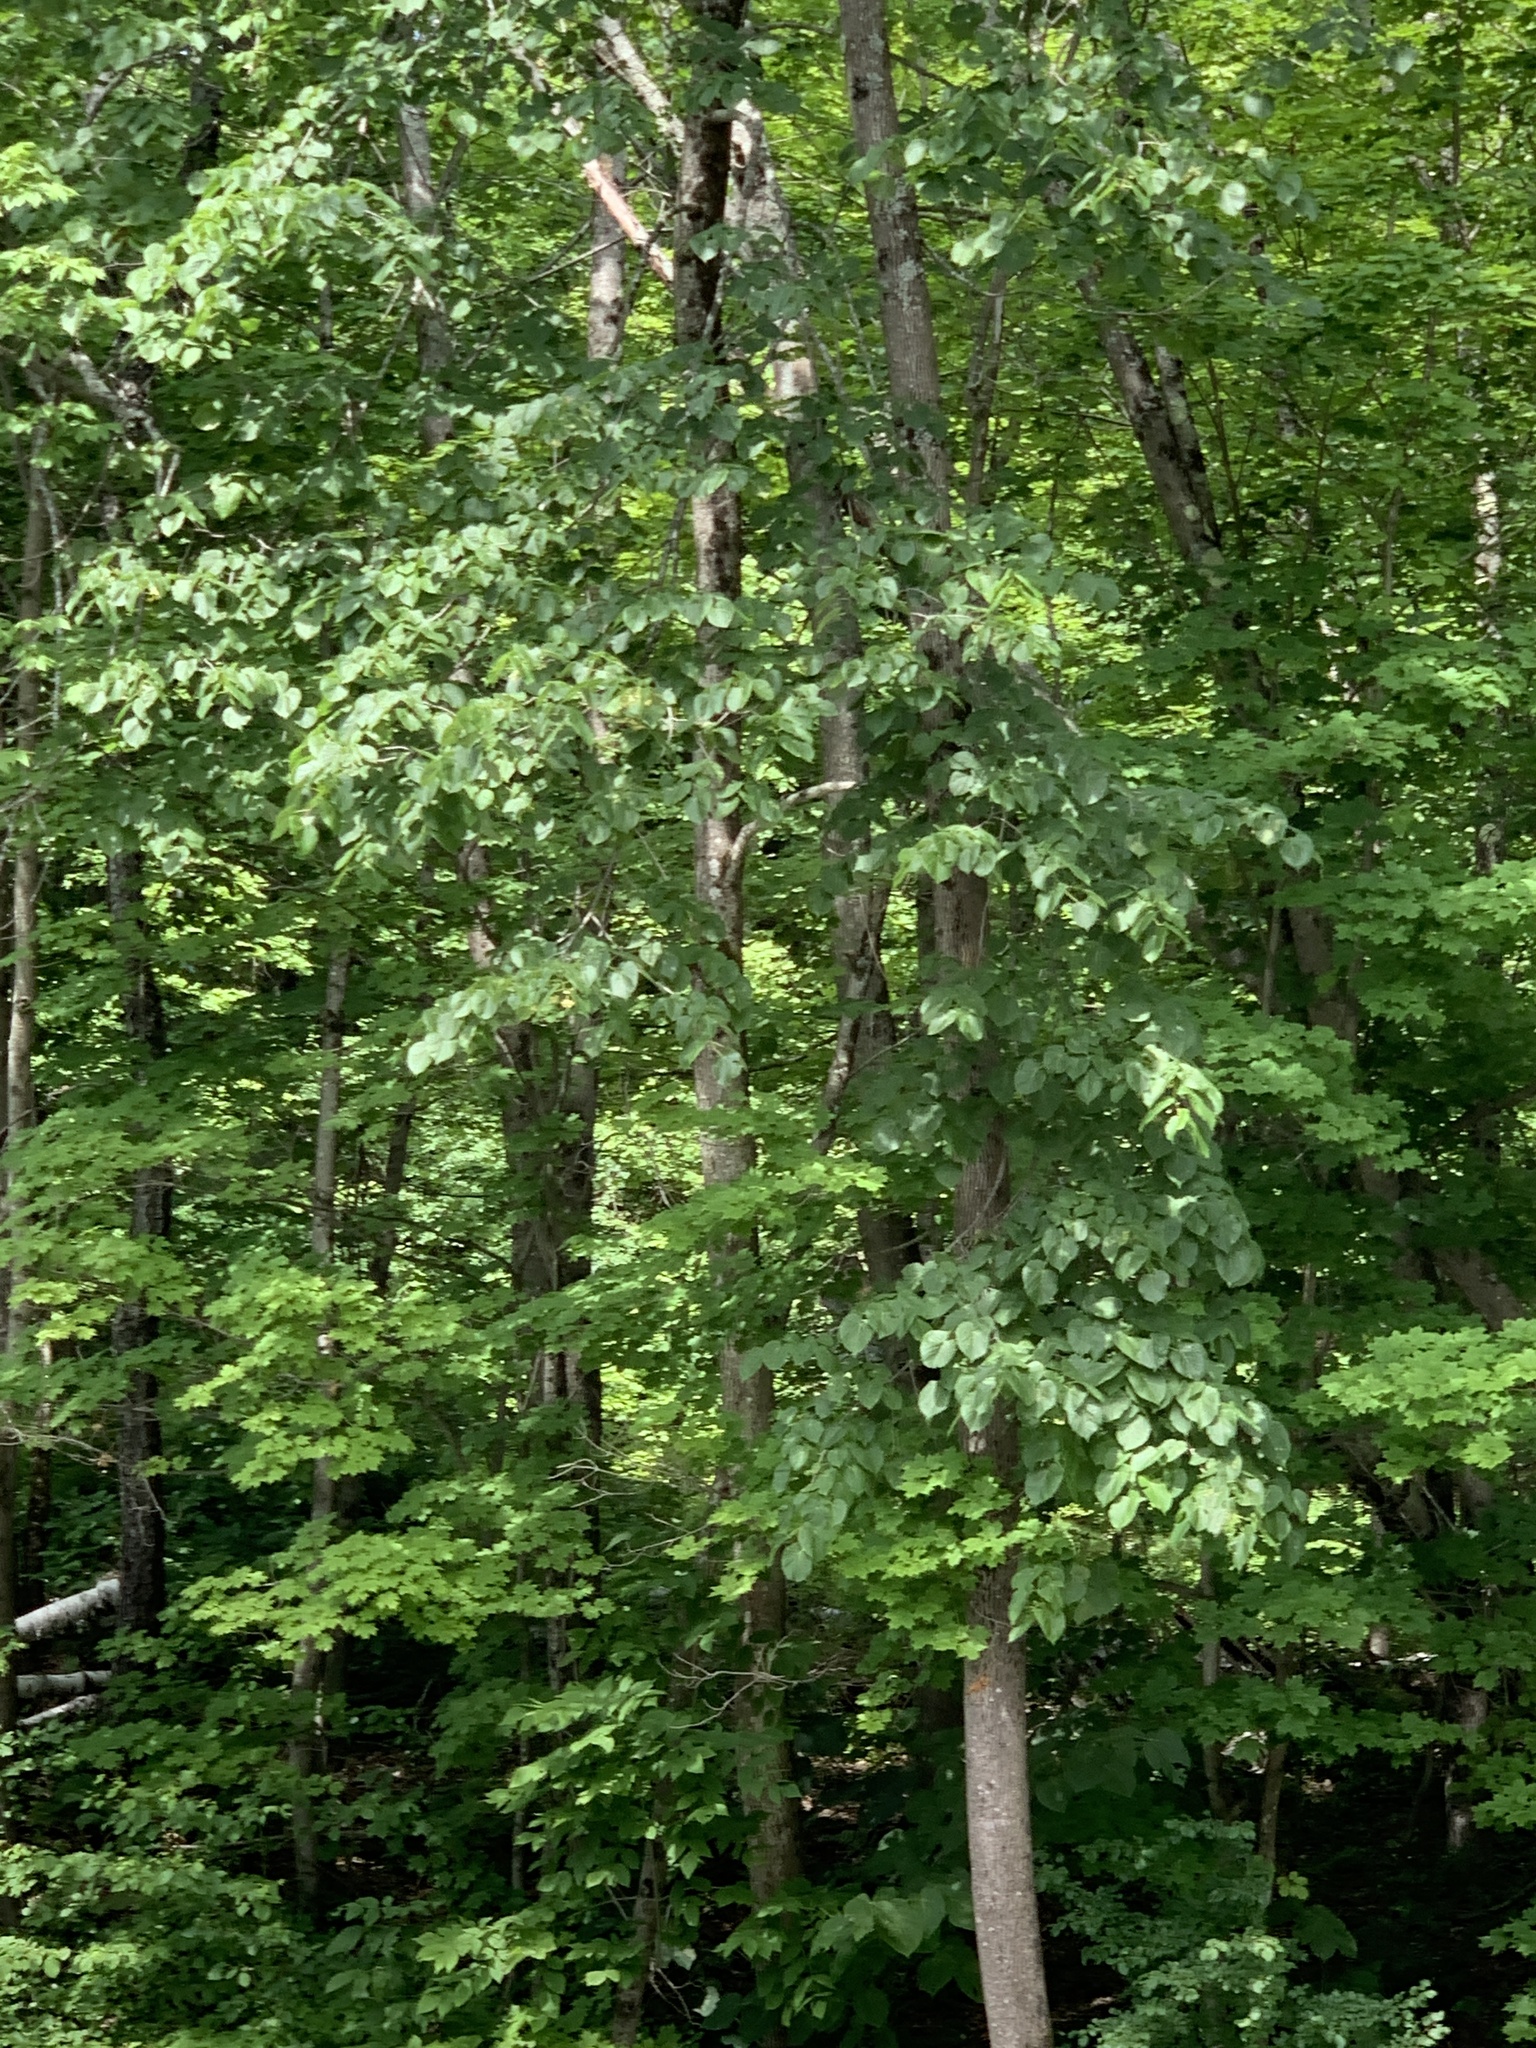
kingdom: Plantae
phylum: Tracheophyta
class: Magnoliopsida
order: Malvales
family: Malvaceae
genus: Tilia
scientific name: Tilia americana
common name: Basswood
